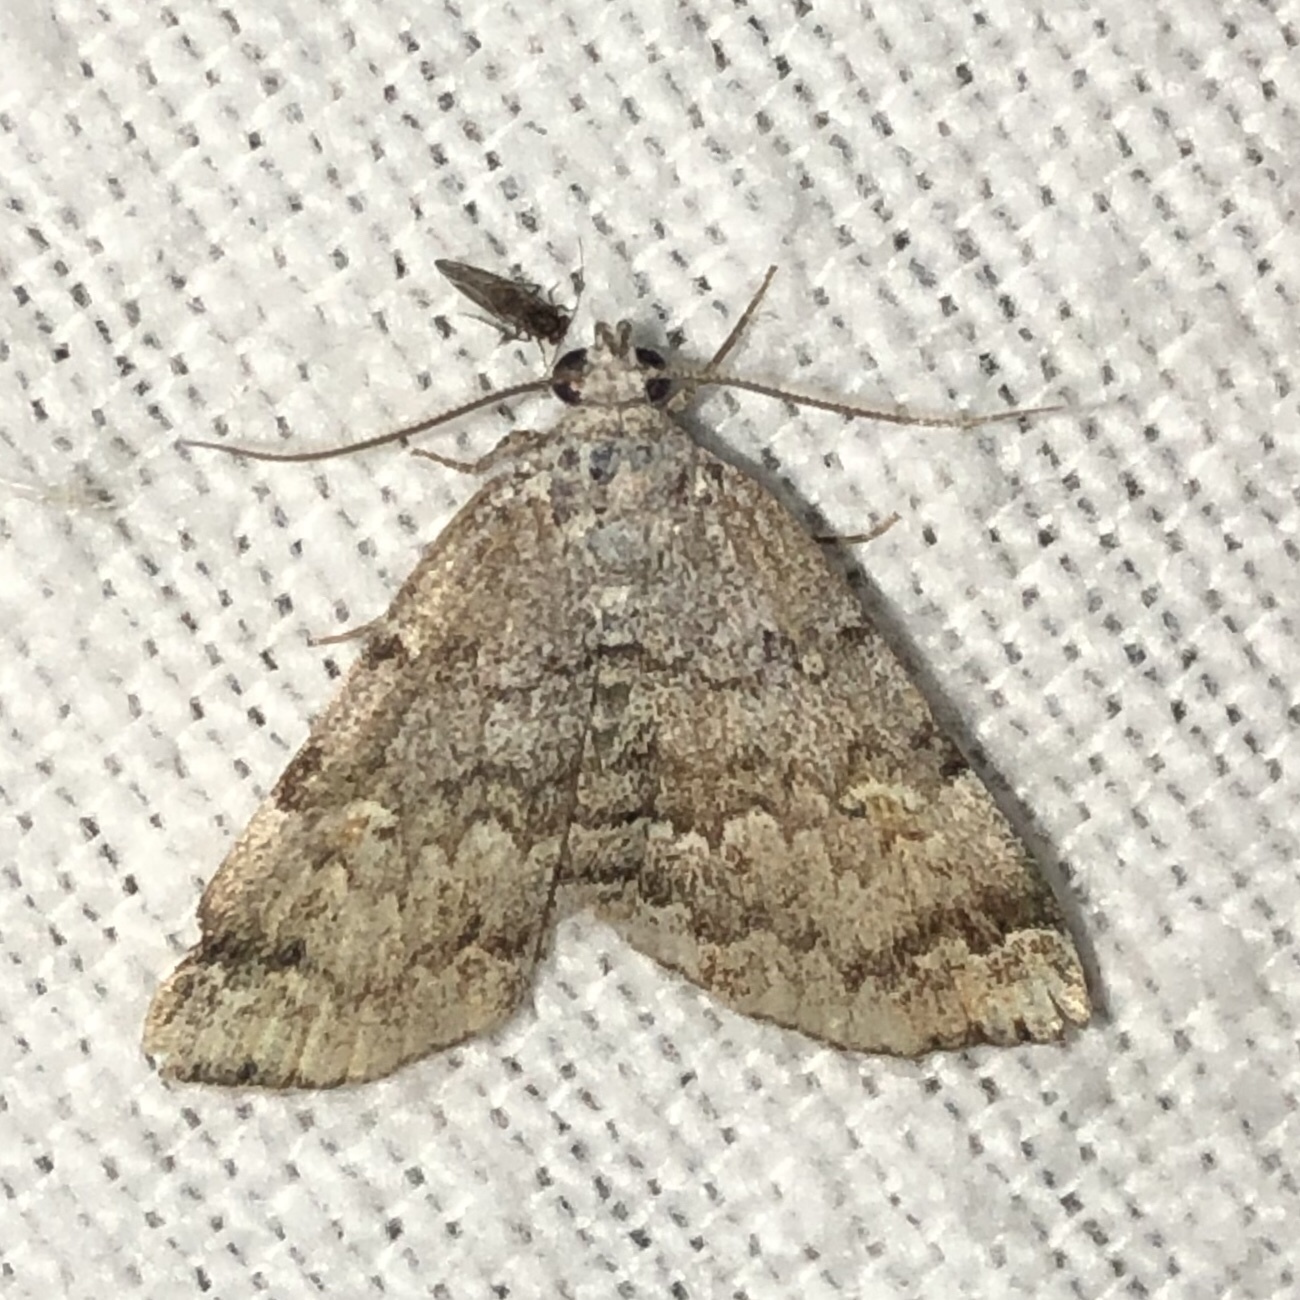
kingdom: Animalia
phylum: Arthropoda
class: Insecta
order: Lepidoptera
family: Erebidae
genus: Idia
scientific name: Idia americalis
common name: American idia moth
